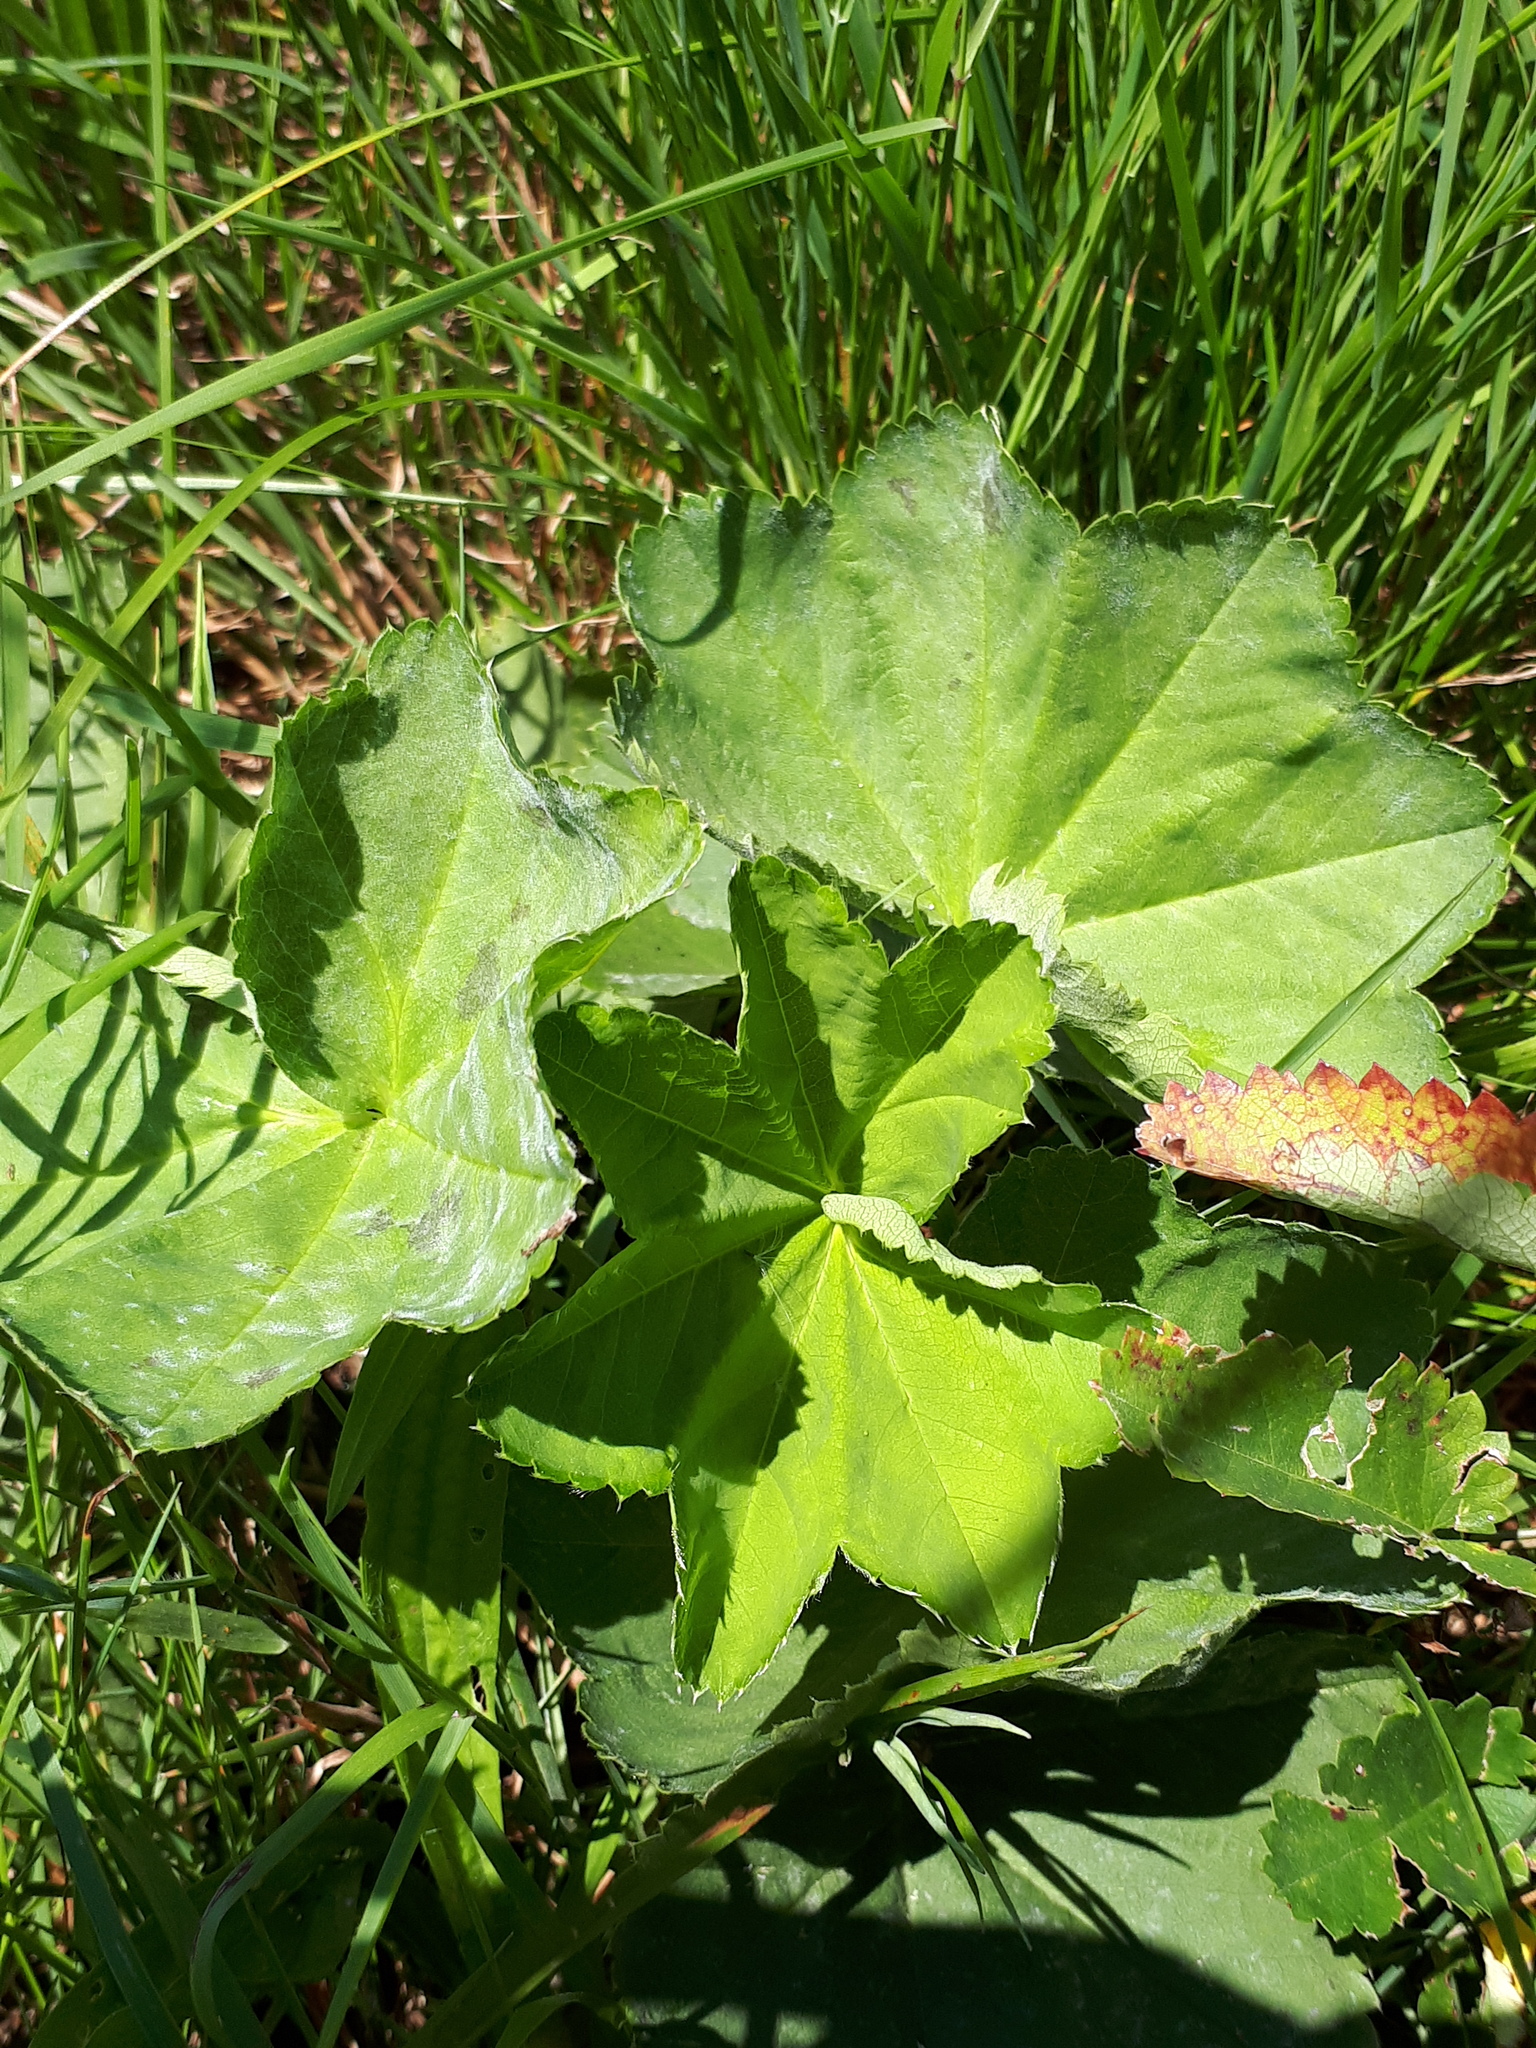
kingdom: Plantae
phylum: Tracheophyta
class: Magnoliopsida
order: Rosales
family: Rosaceae
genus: Alchemilla
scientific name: Alchemilla obtusa
